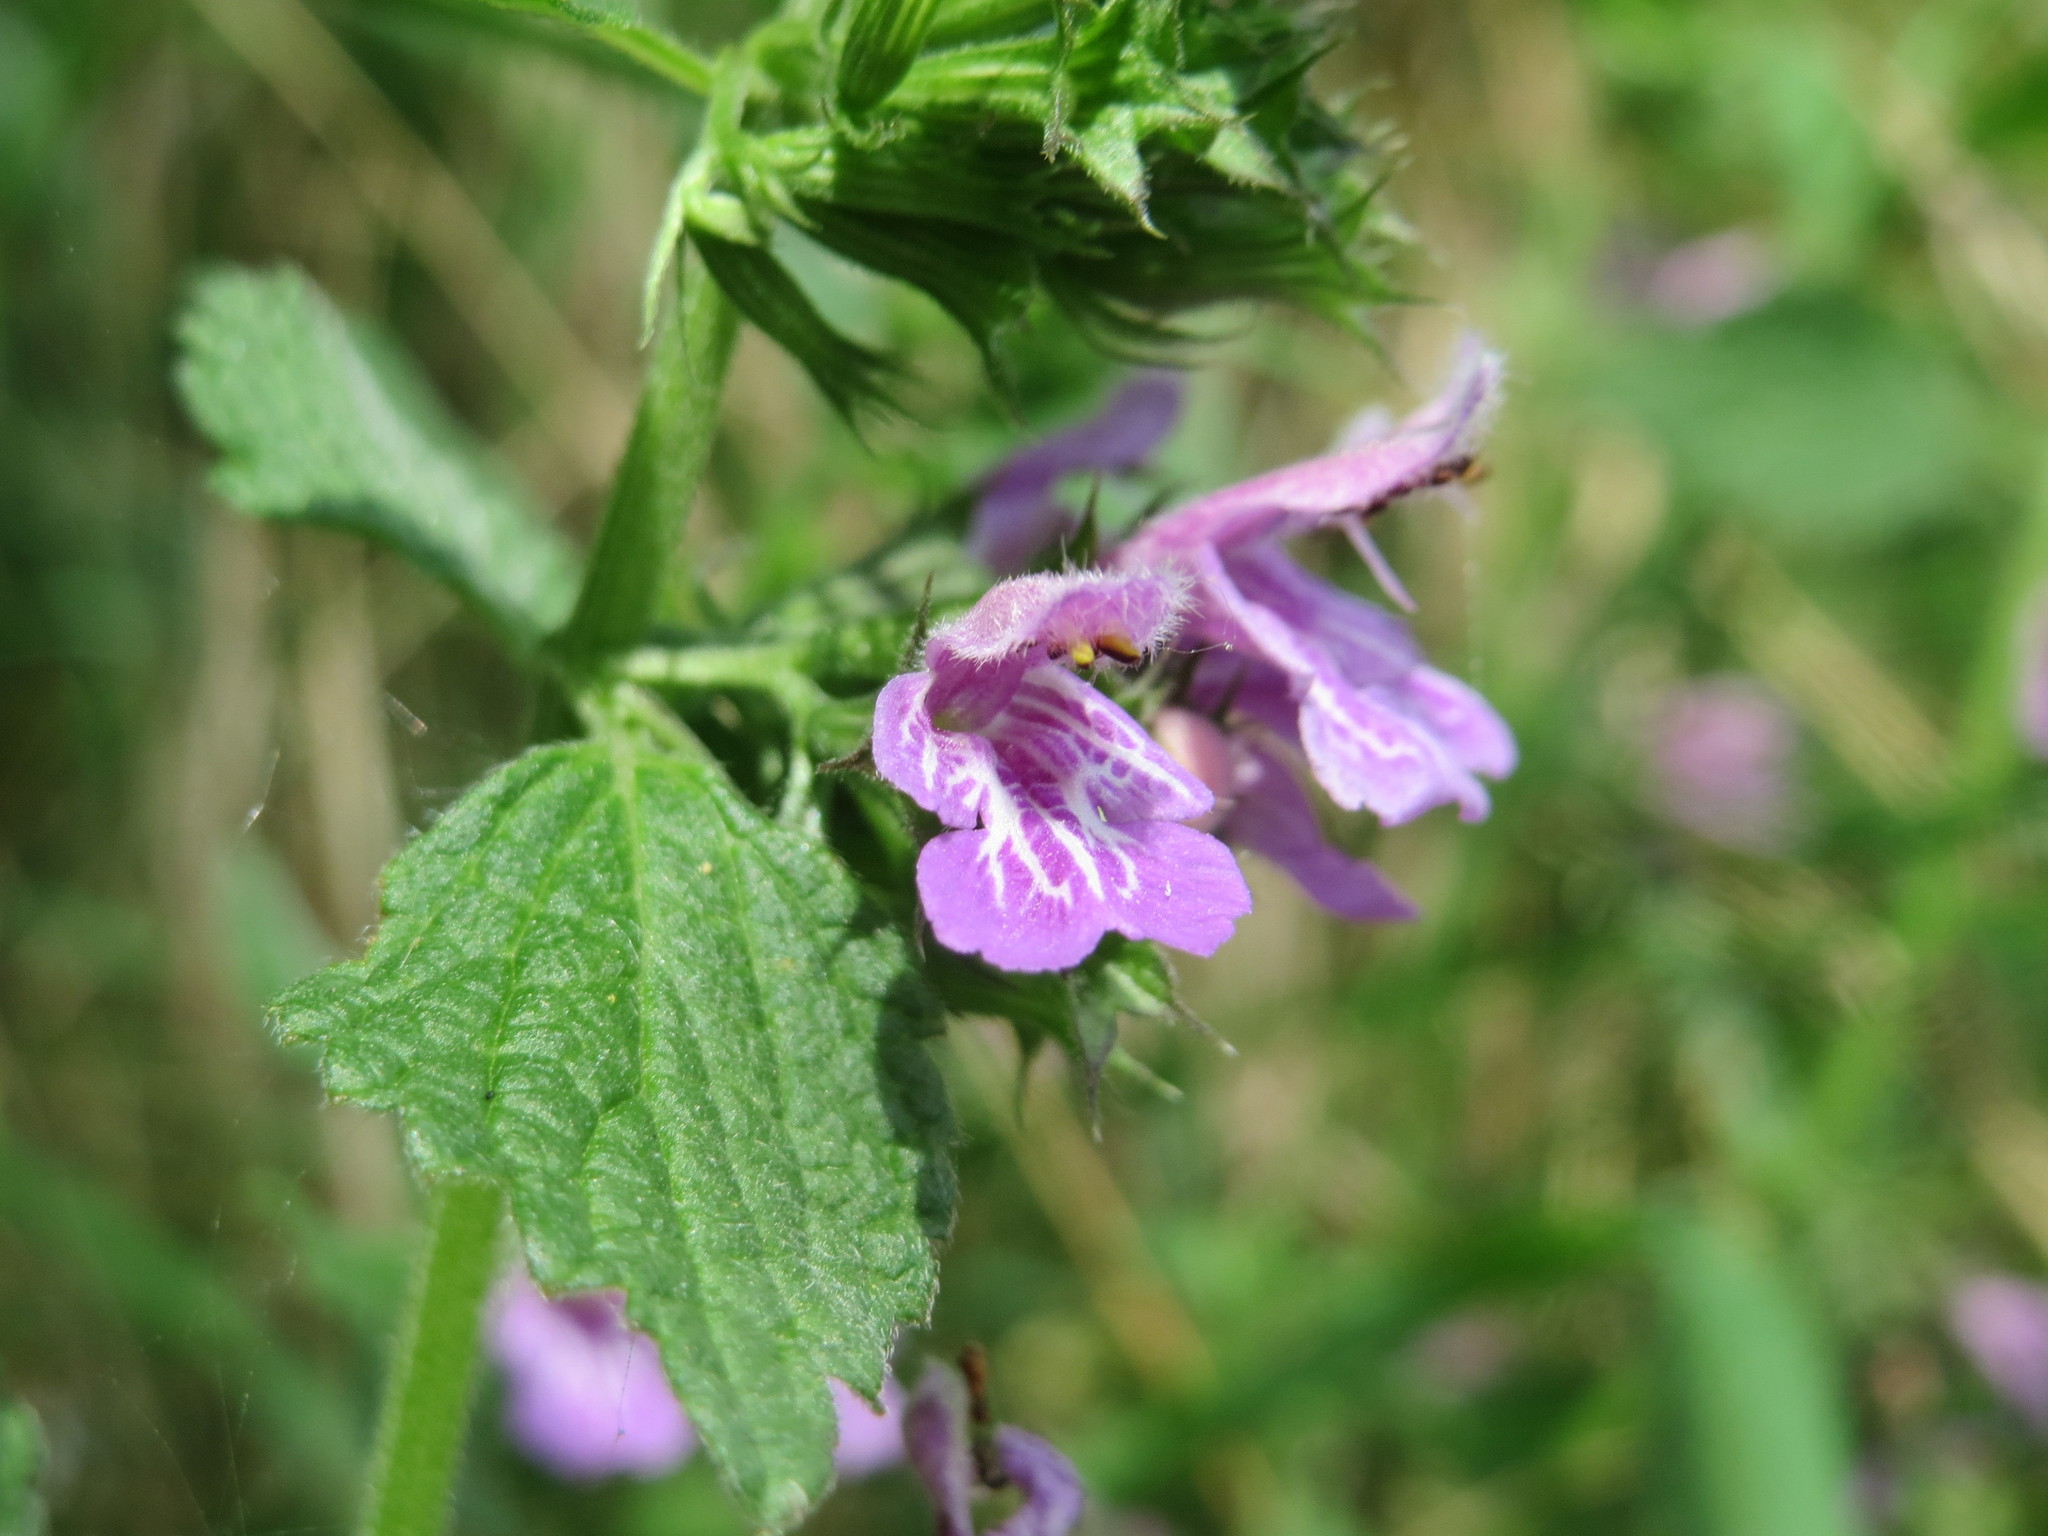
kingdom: Plantae
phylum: Tracheophyta
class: Magnoliopsida
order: Lamiales
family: Lamiaceae
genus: Ballota
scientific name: Ballota nigra
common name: Black horehound
